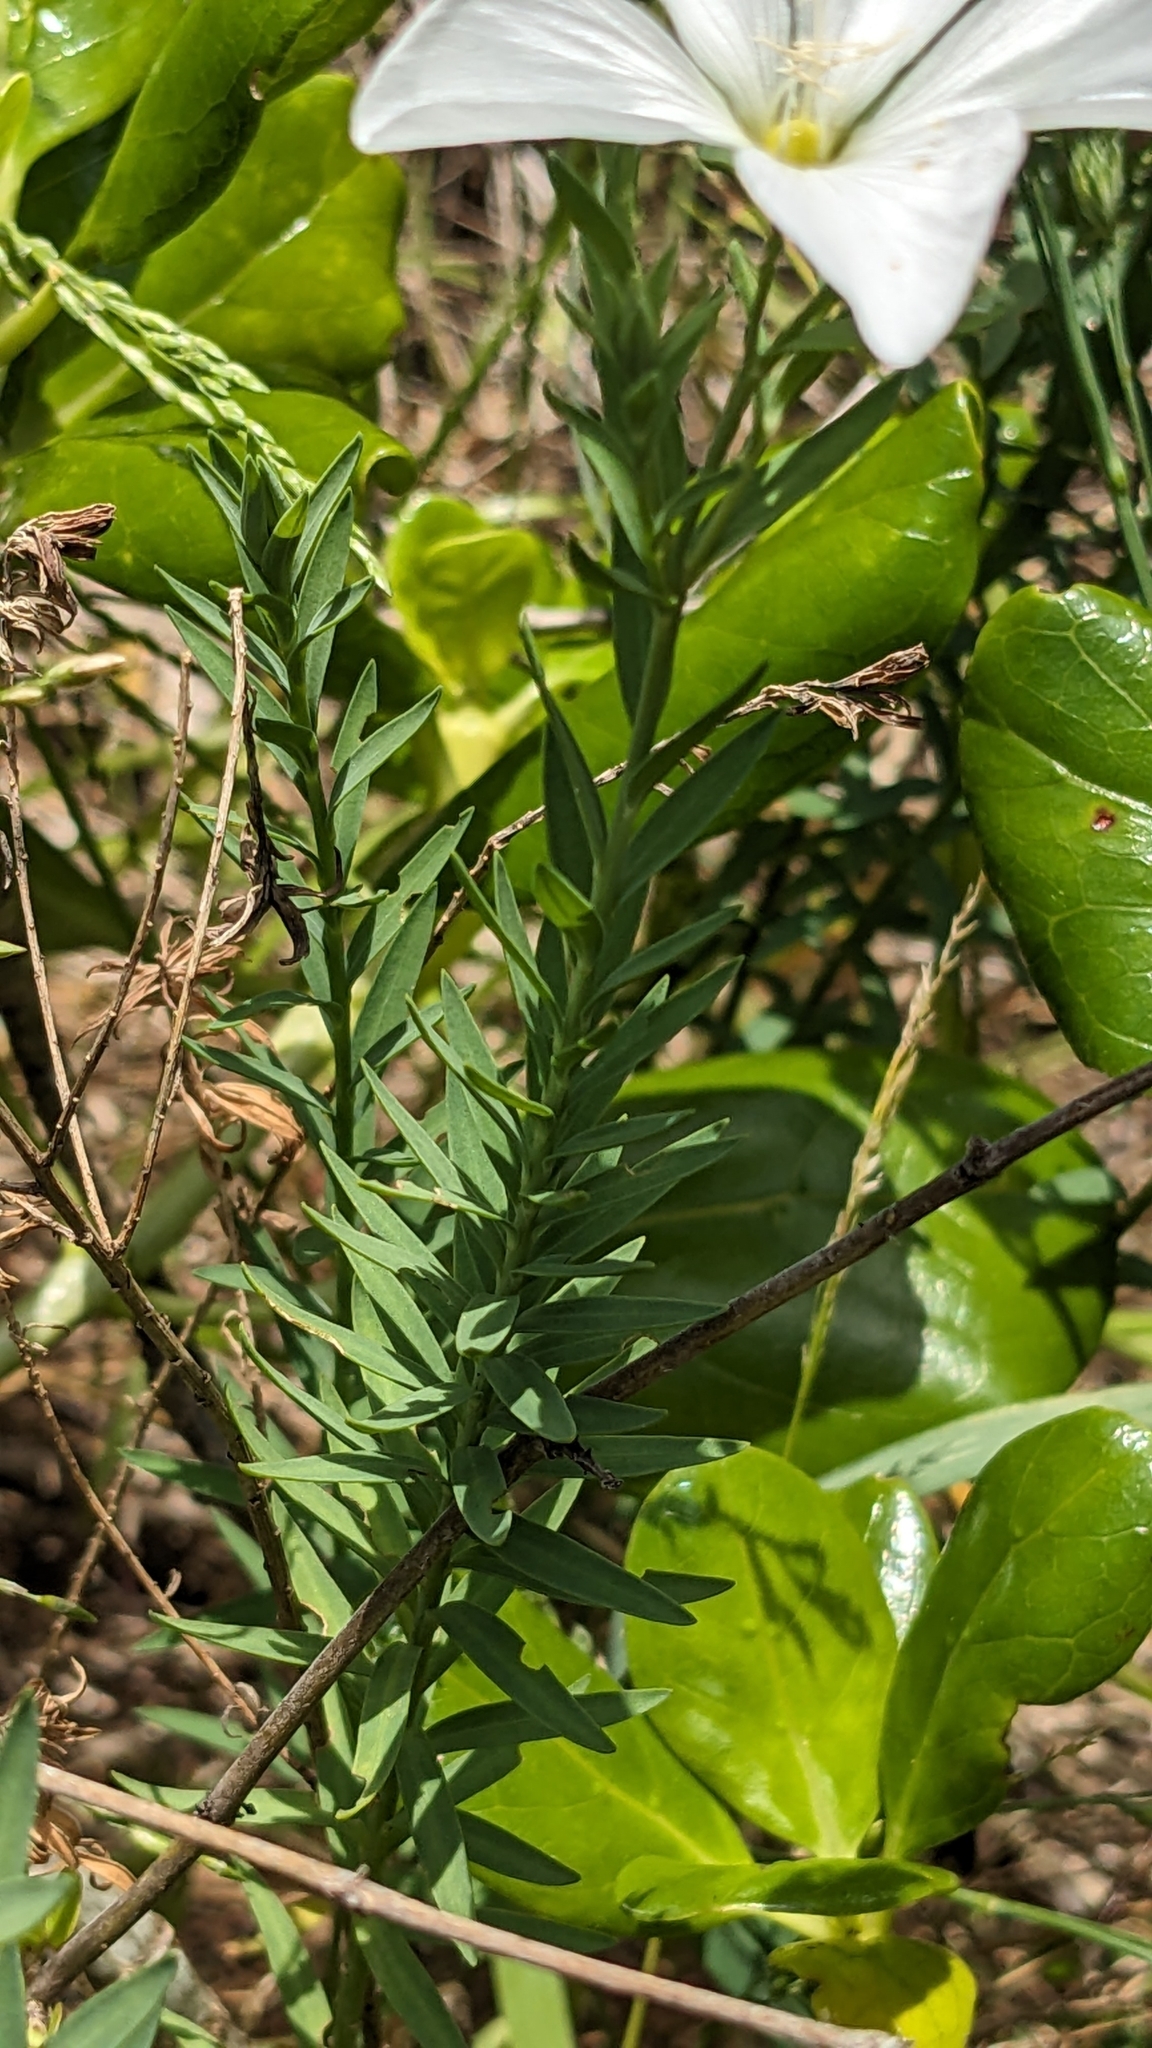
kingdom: Plantae
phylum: Tracheophyta
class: Magnoliopsida
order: Malpighiales
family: Linaceae
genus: Linum
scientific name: Linum monogynum
